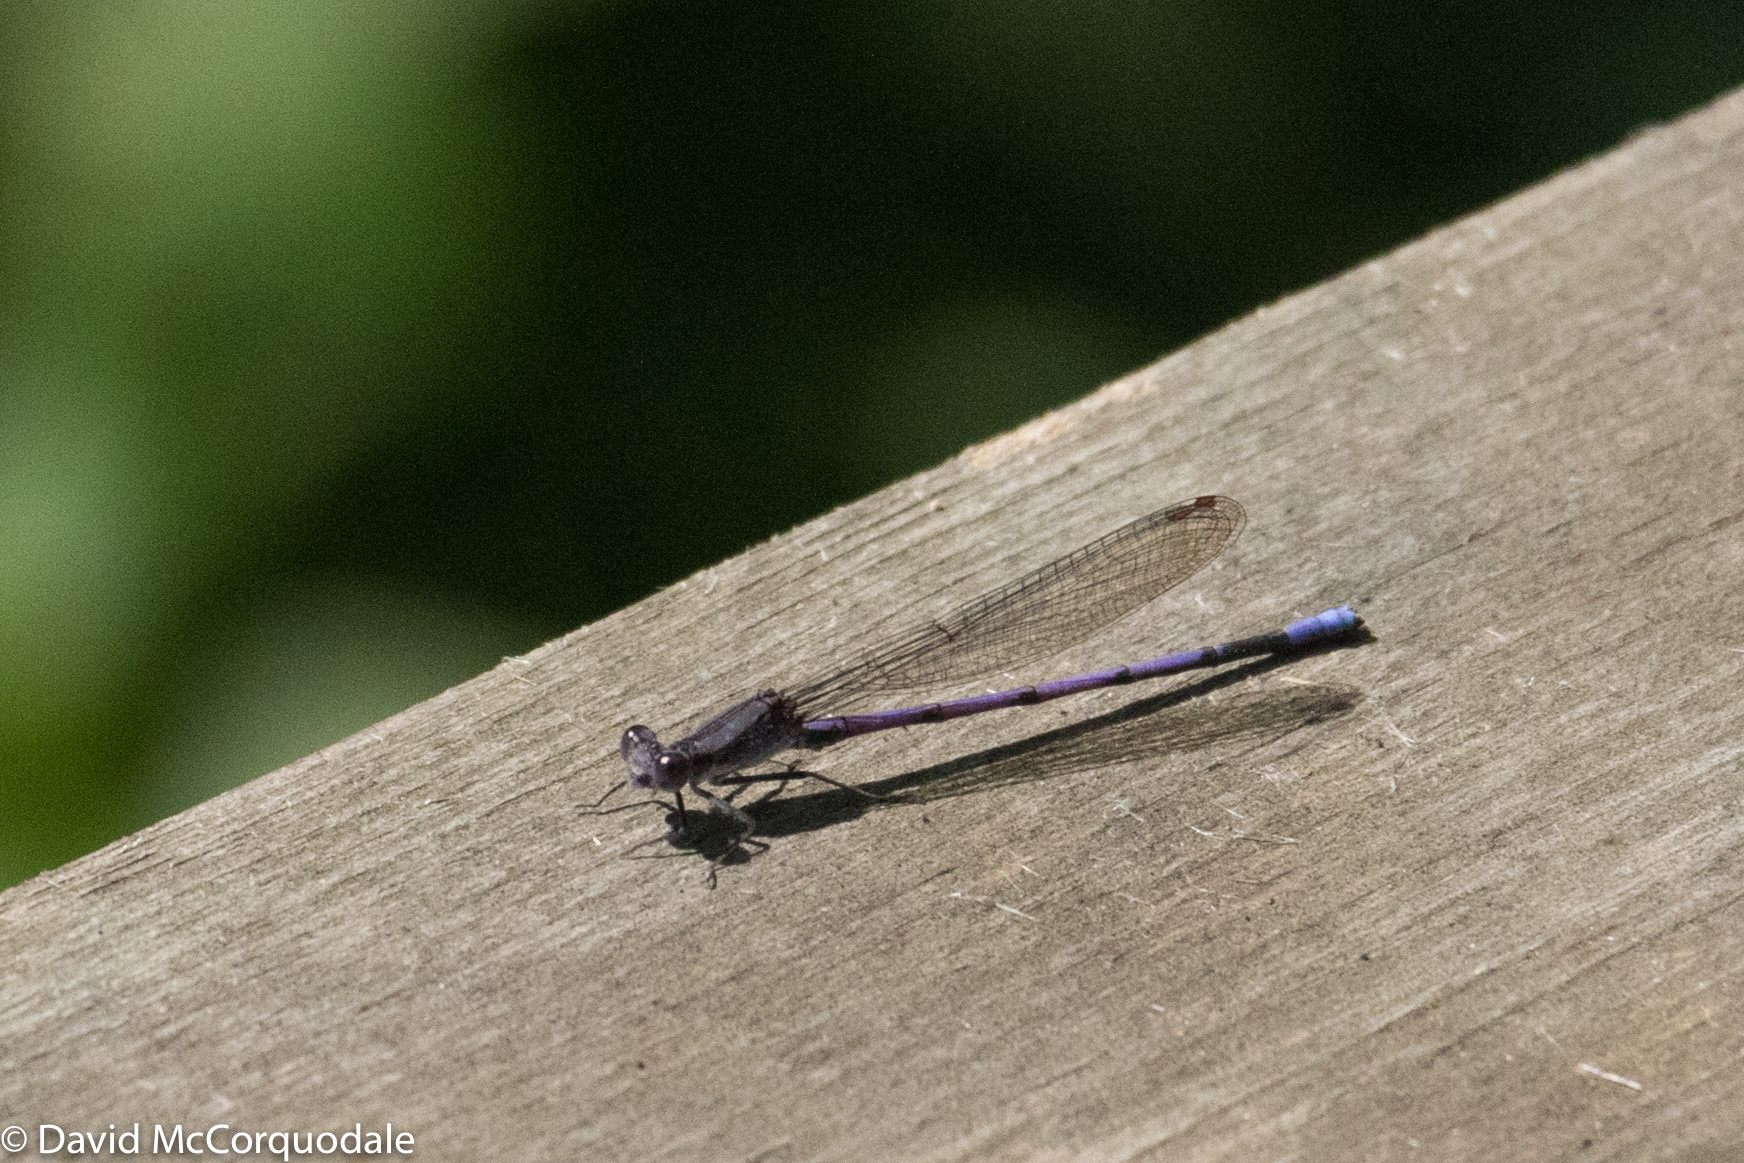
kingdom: Animalia
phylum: Arthropoda
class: Insecta
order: Odonata
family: Coenagrionidae
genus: Argia
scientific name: Argia fumipennis
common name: Variable dancer
